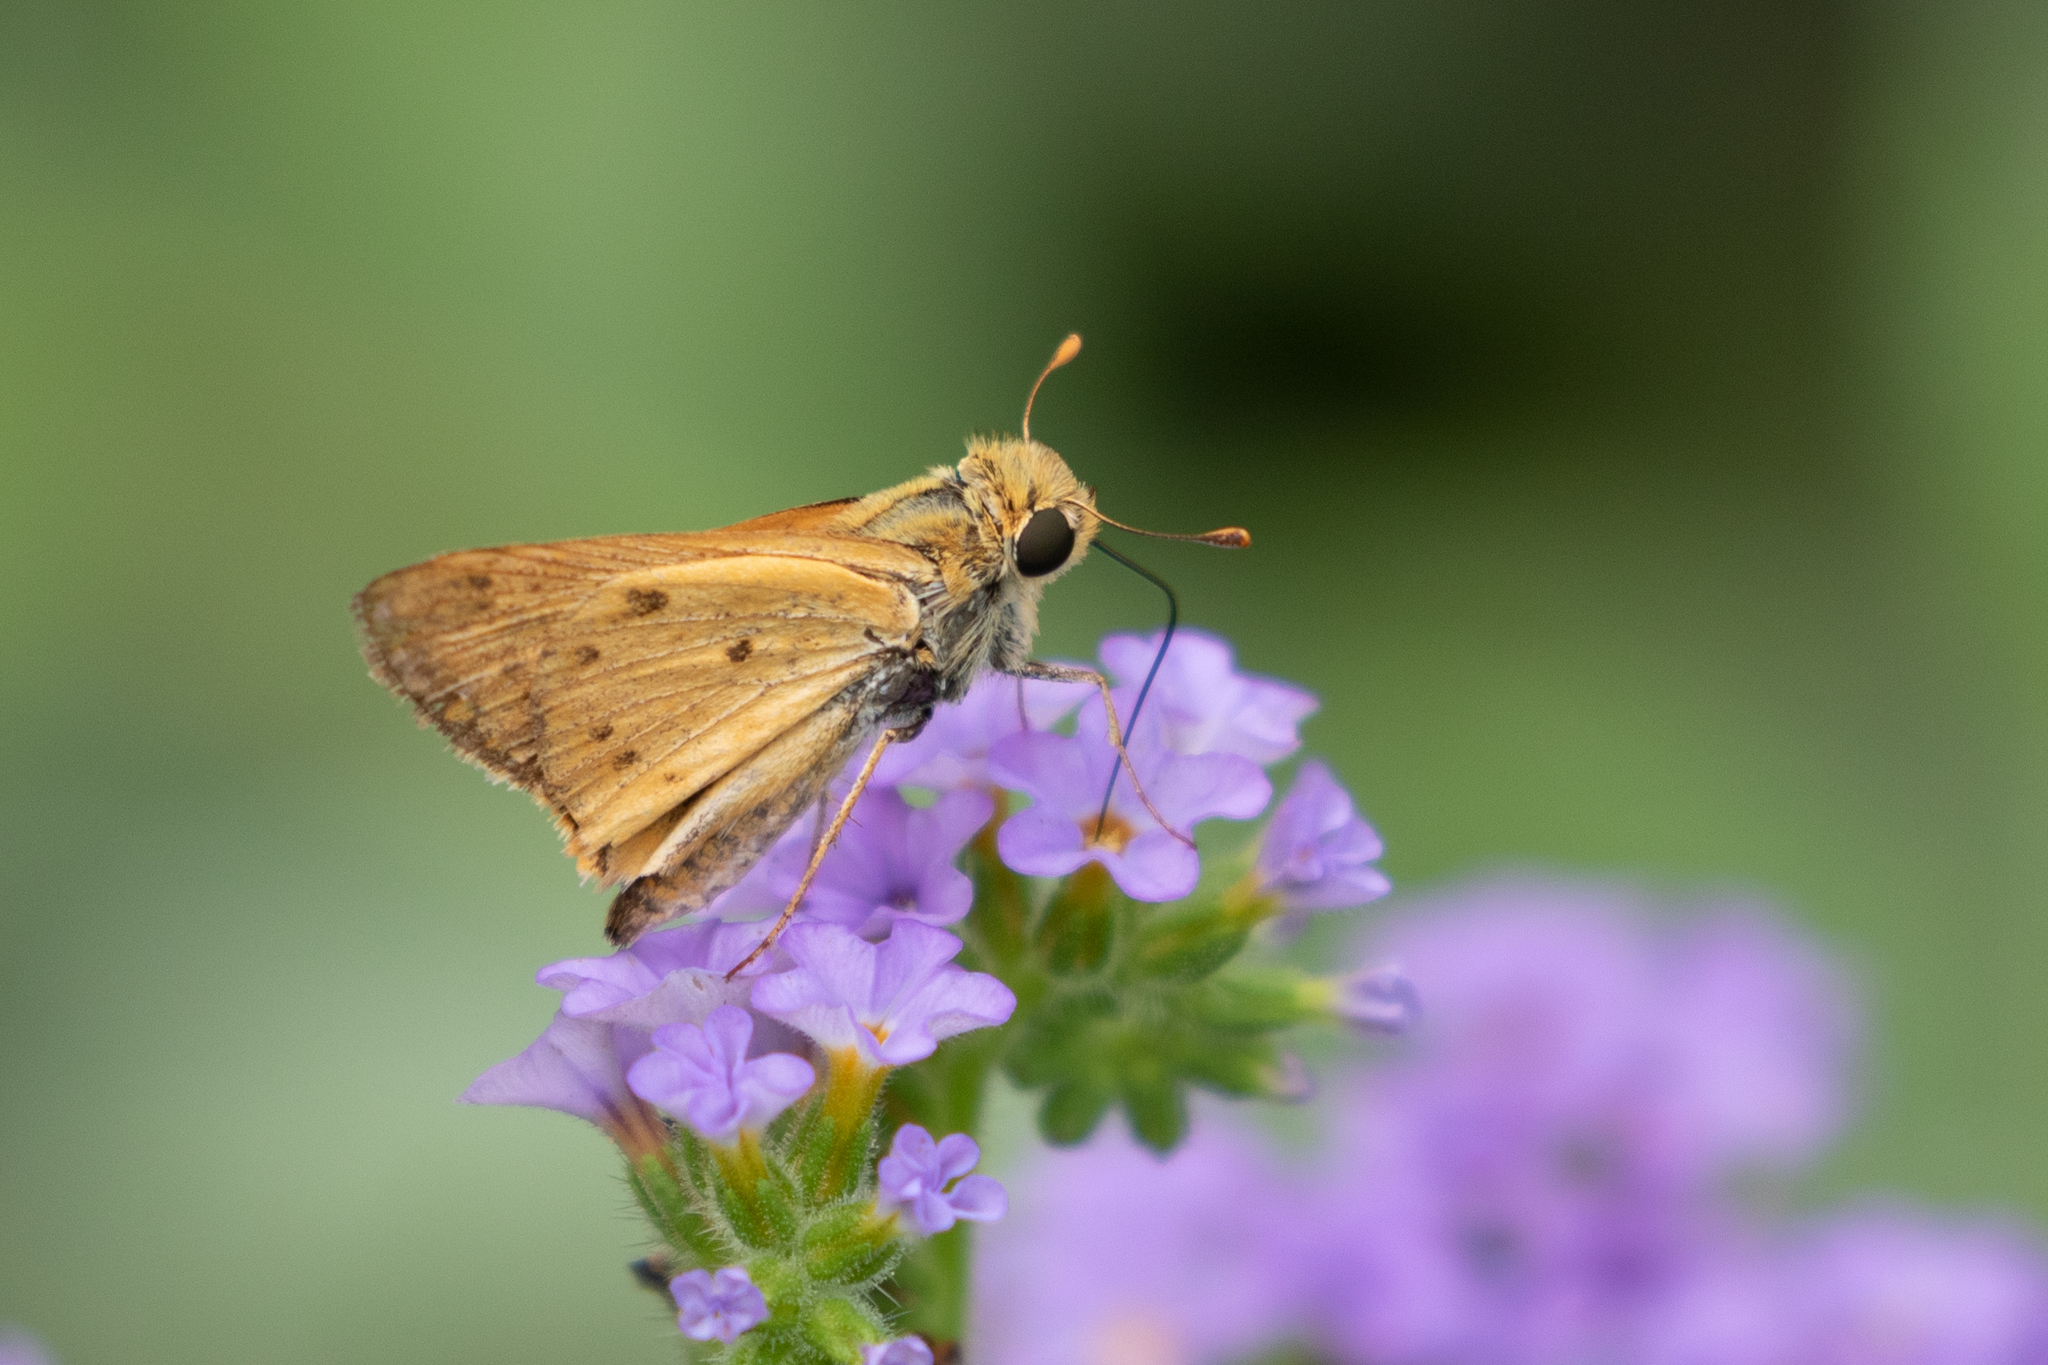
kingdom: Animalia
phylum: Arthropoda
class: Insecta
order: Lepidoptera
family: Hesperiidae
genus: Hylephila
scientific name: Hylephila phyleus
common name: Fiery skipper
